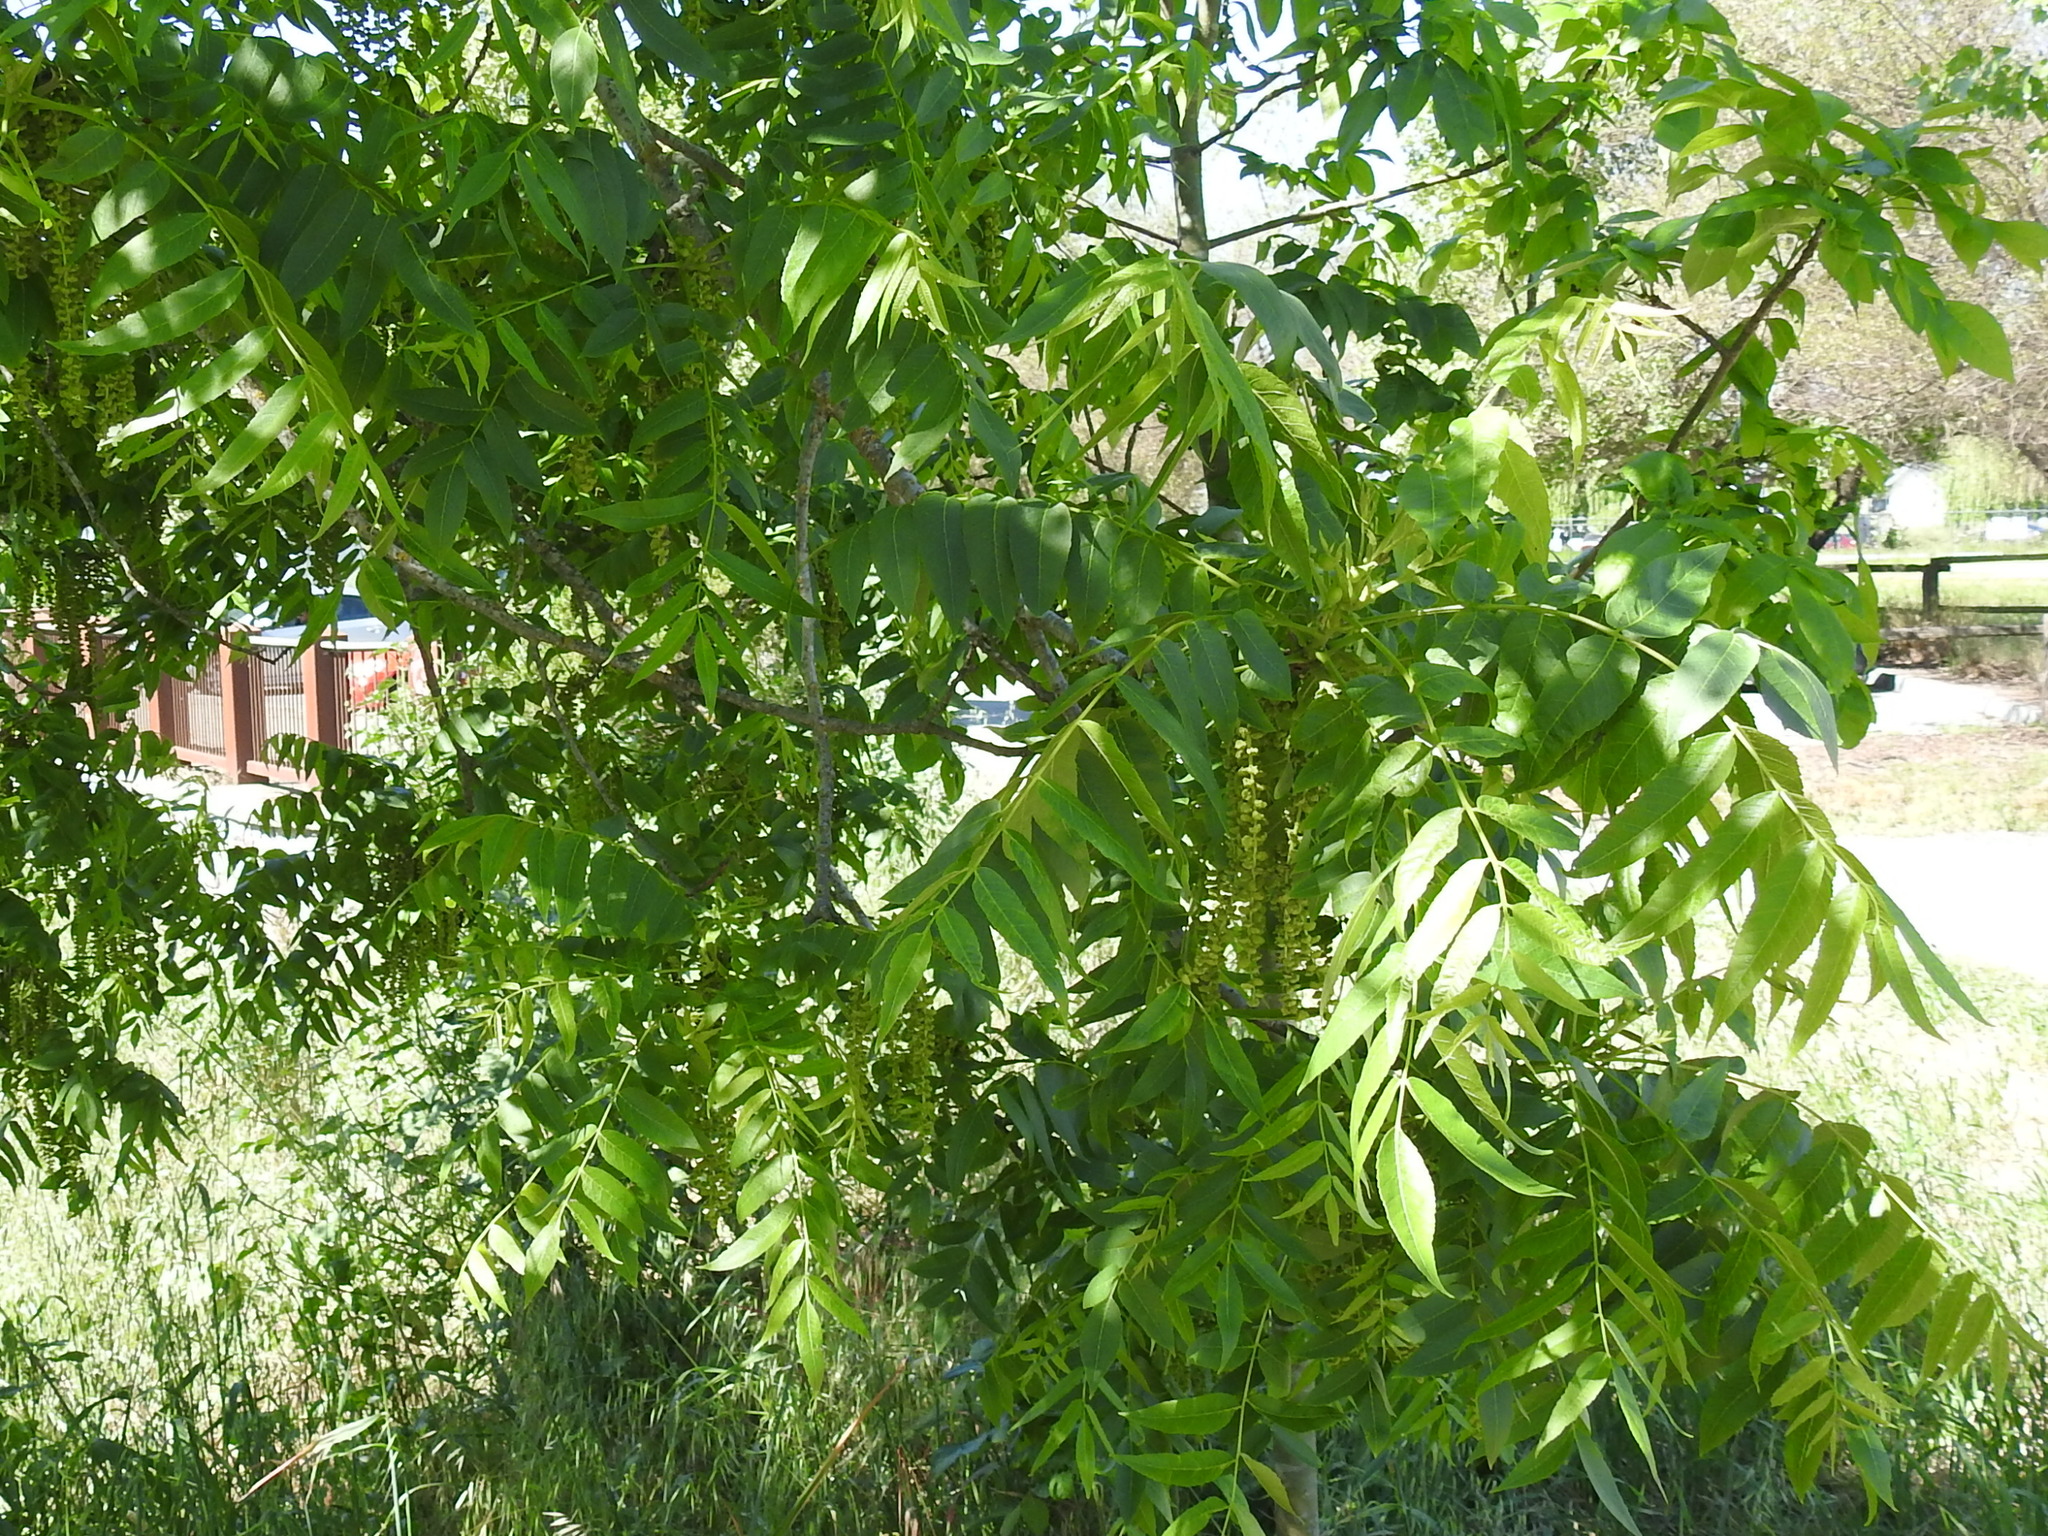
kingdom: Plantae
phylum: Tracheophyta
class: Magnoliopsida
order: Fagales
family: Juglandaceae
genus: Juglans
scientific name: Juglans hindsii
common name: Northern california black walnut
